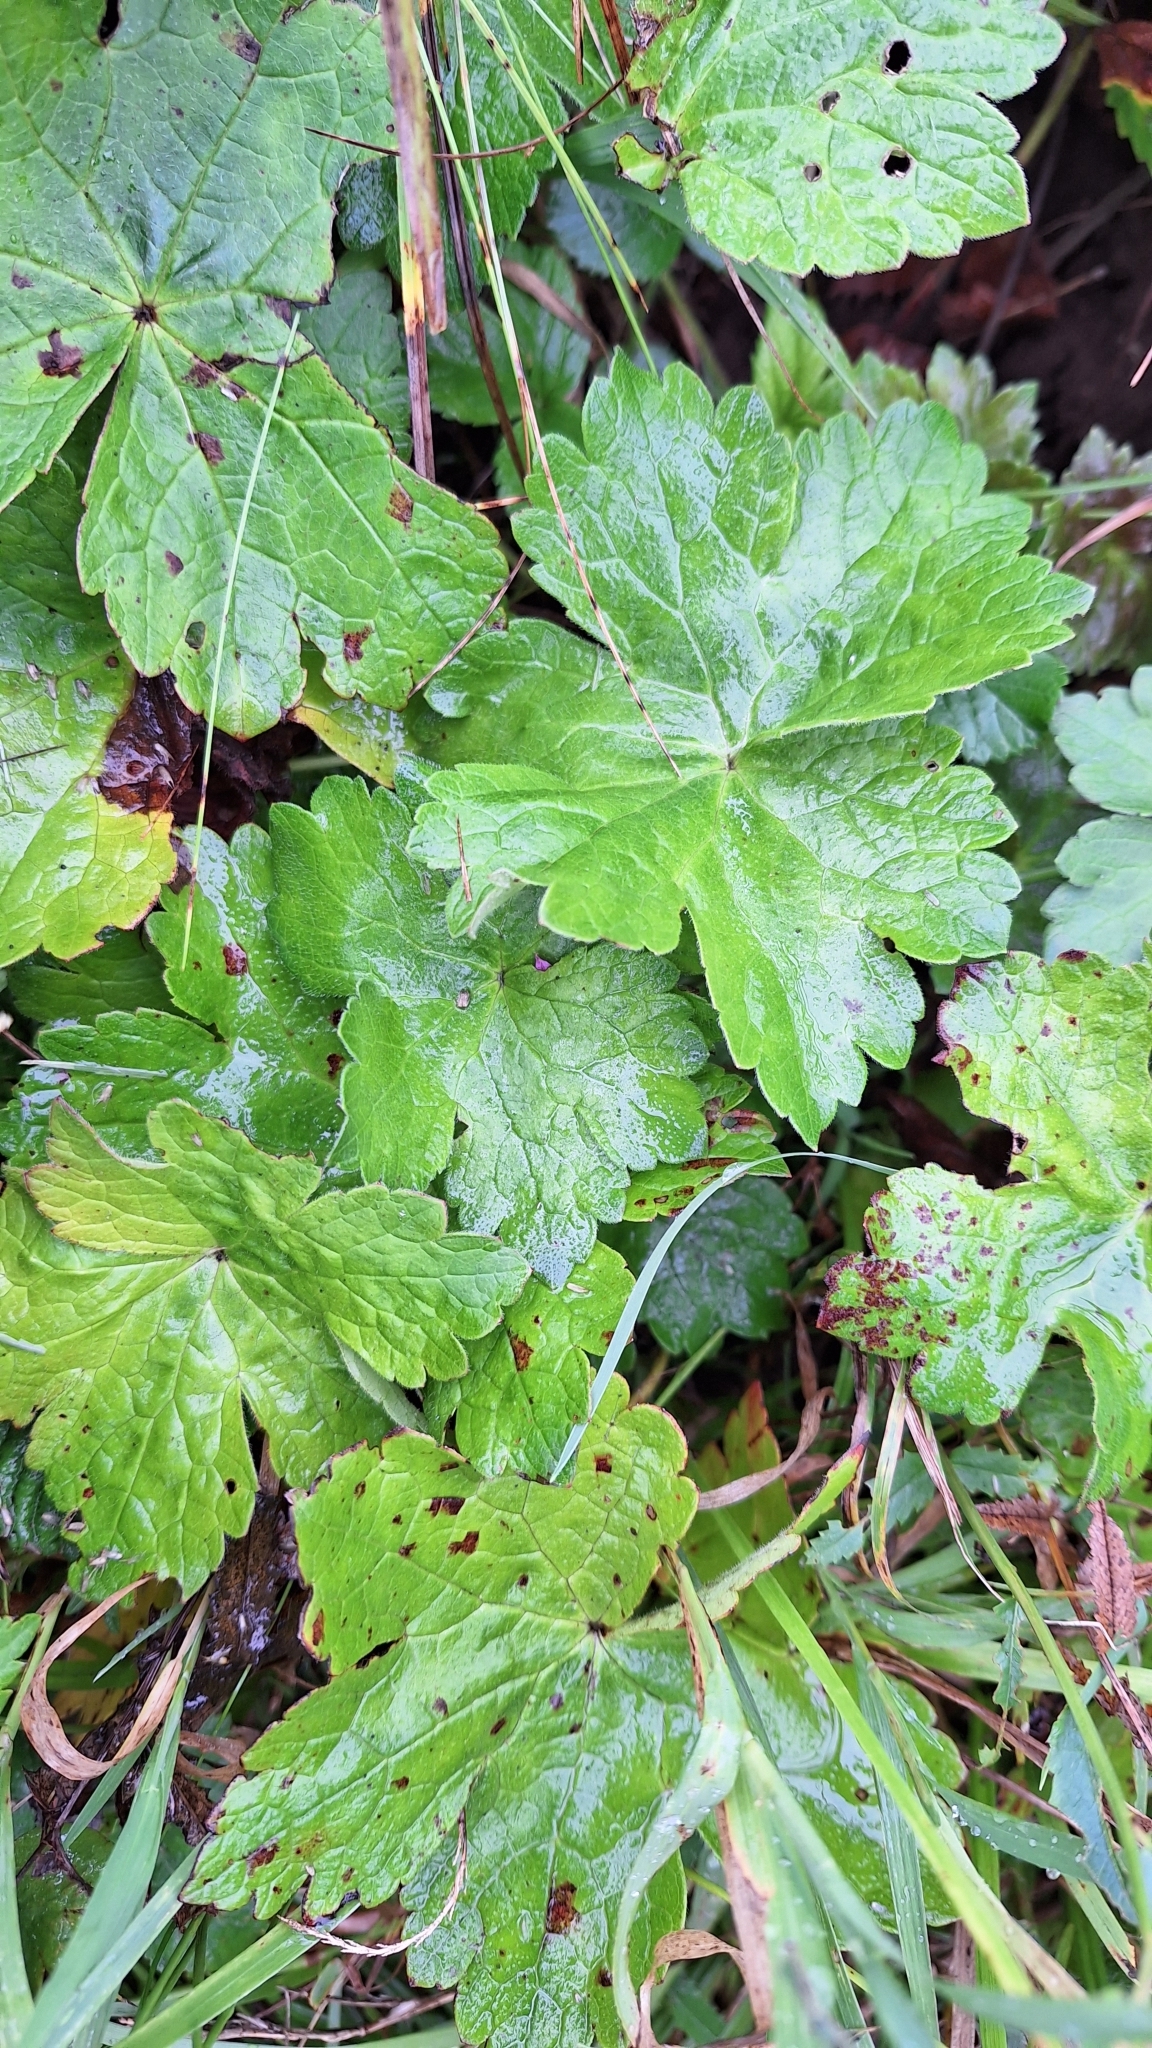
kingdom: Plantae
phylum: Tracheophyta
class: Magnoliopsida
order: Geraniales
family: Geraniaceae
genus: Geranium
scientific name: Geranium platyanthum
